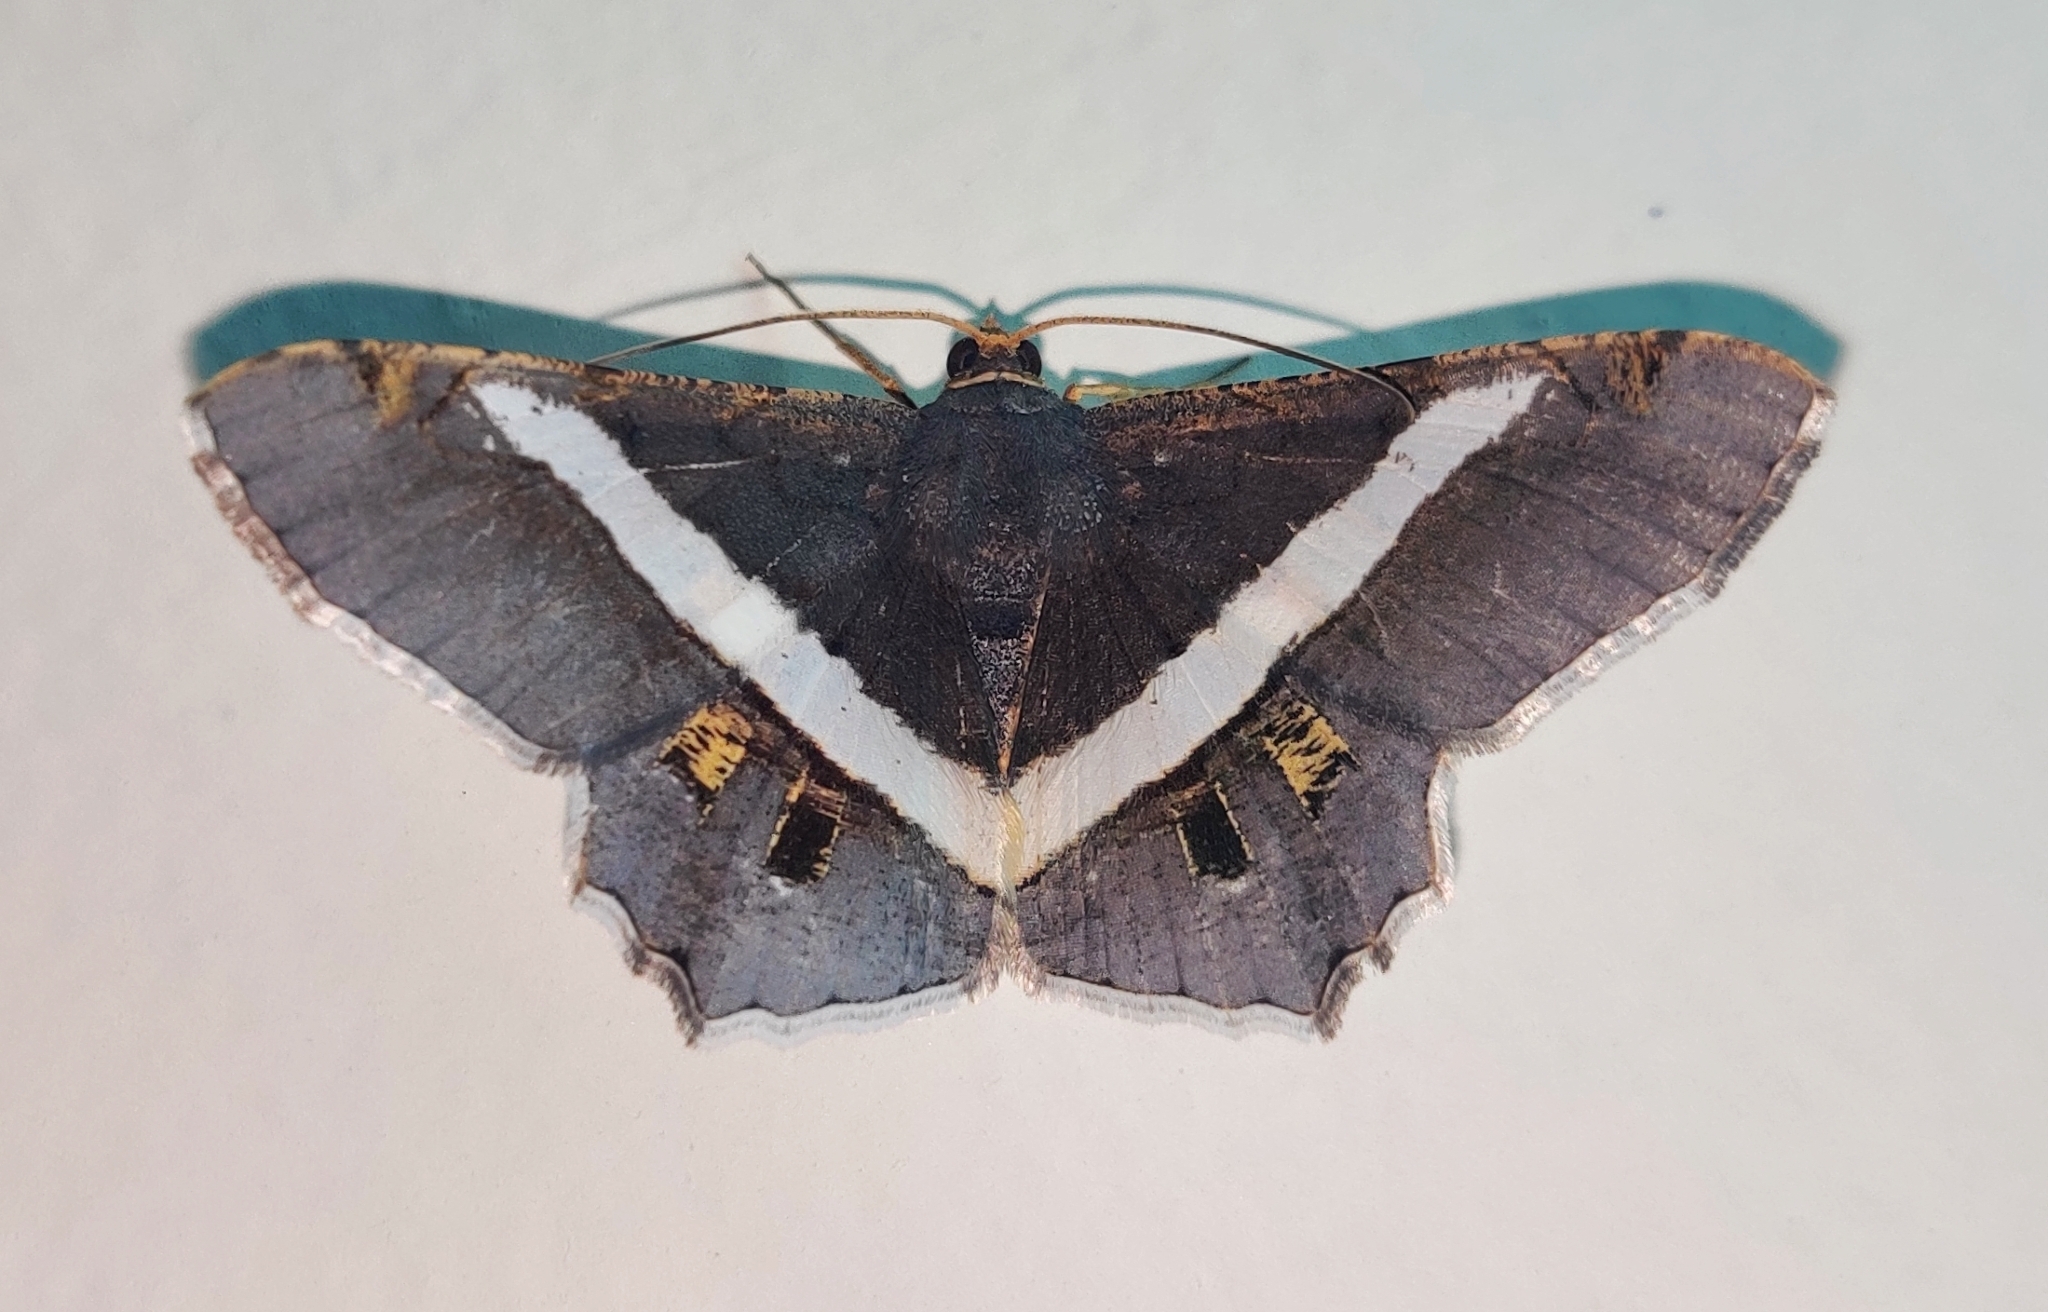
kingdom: Animalia
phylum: Arthropoda
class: Insecta
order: Lepidoptera
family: Geometridae
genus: Chiasmia
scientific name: Chiasmia eleonora
